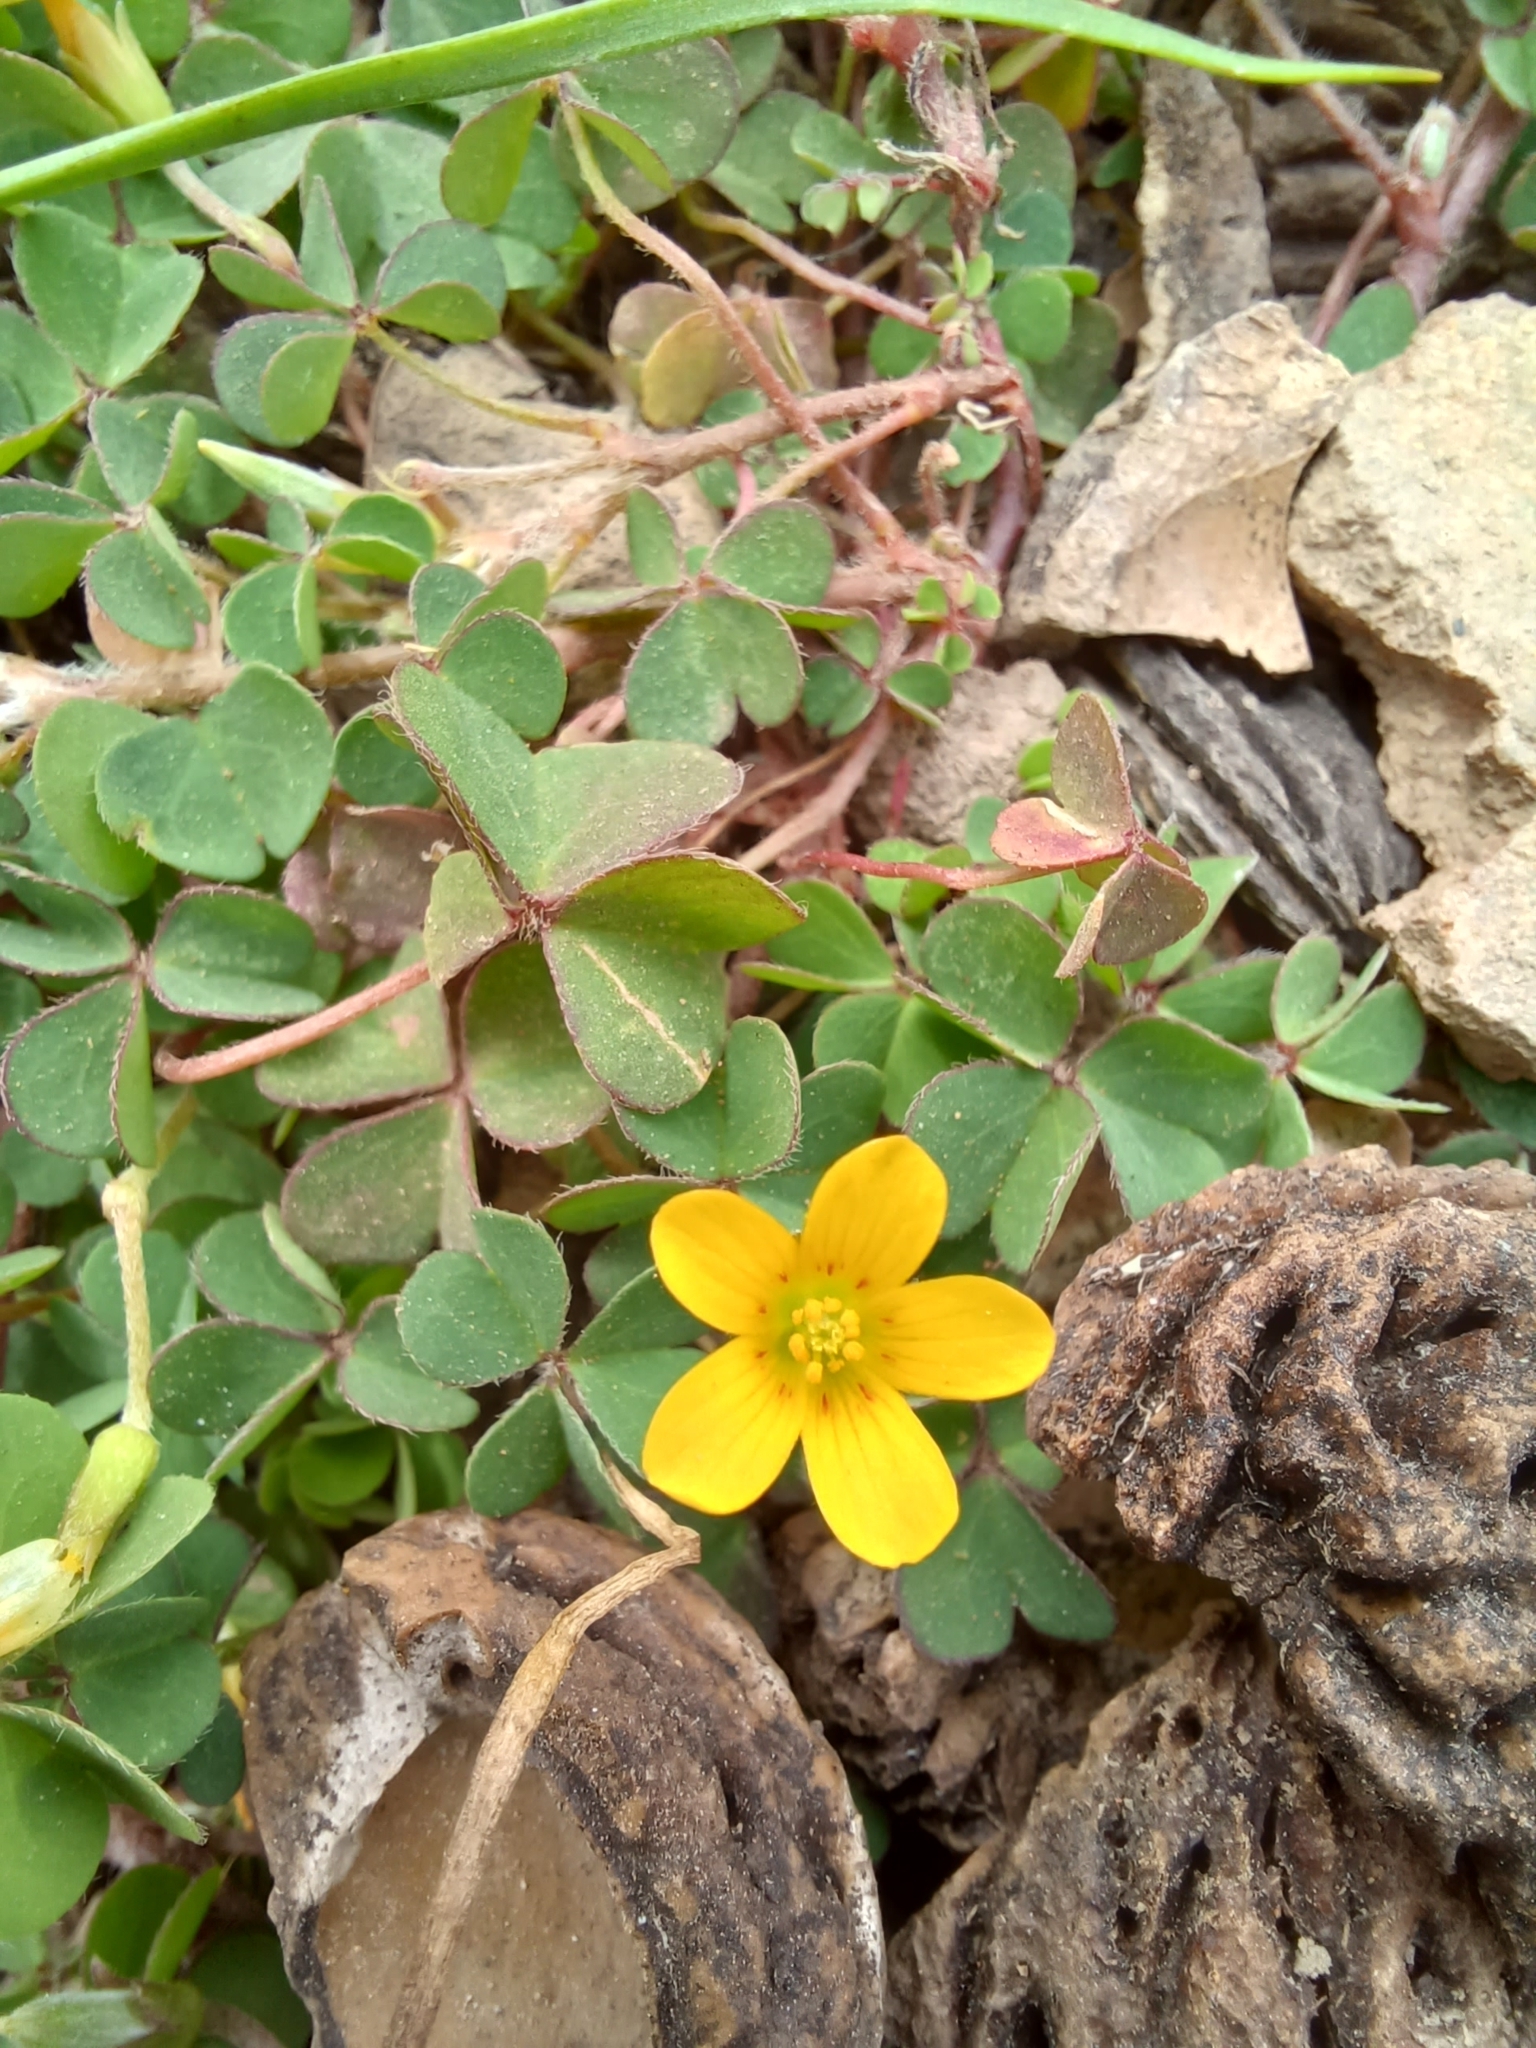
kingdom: Plantae
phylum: Tracheophyta
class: Magnoliopsida
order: Oxalidales
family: Oxalidaceae
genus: Oxalis
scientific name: Oxalis corniculata
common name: Procumbent yellow-sorrel
